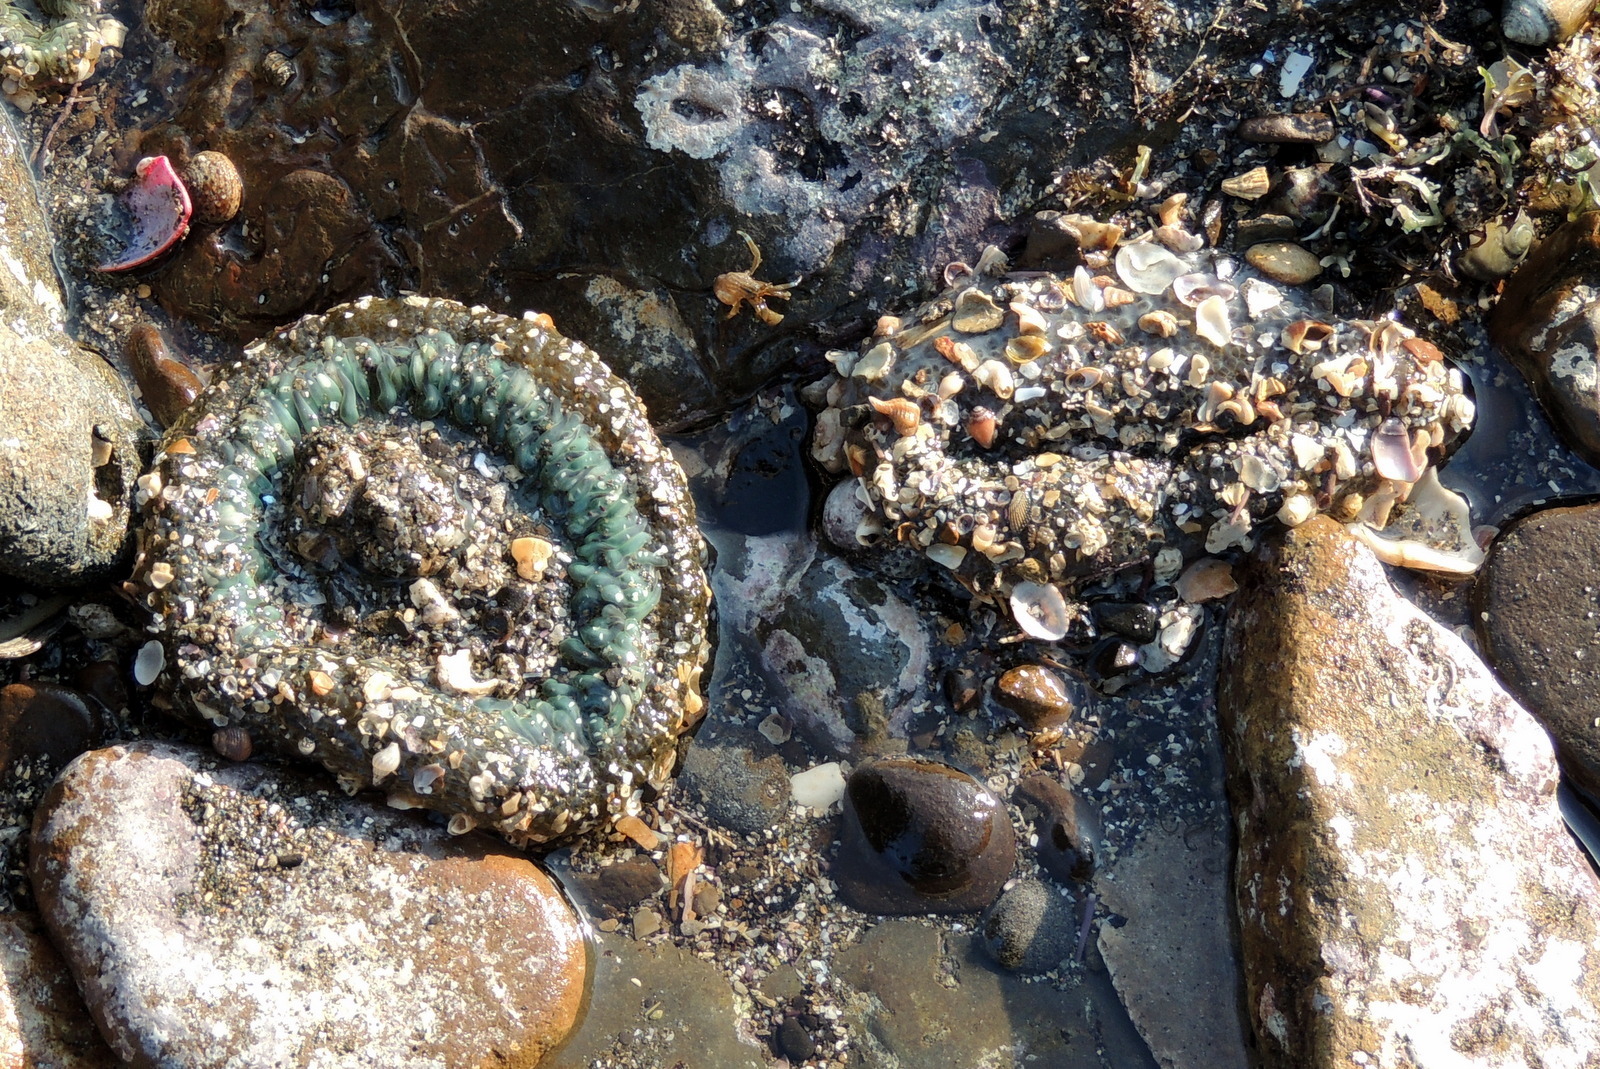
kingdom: Animalia
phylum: Cnidaria
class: Anthozoa
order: Actiniaria
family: Actiniidae
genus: Anthopleura
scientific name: Anthopleura sola
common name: Sun anemone
